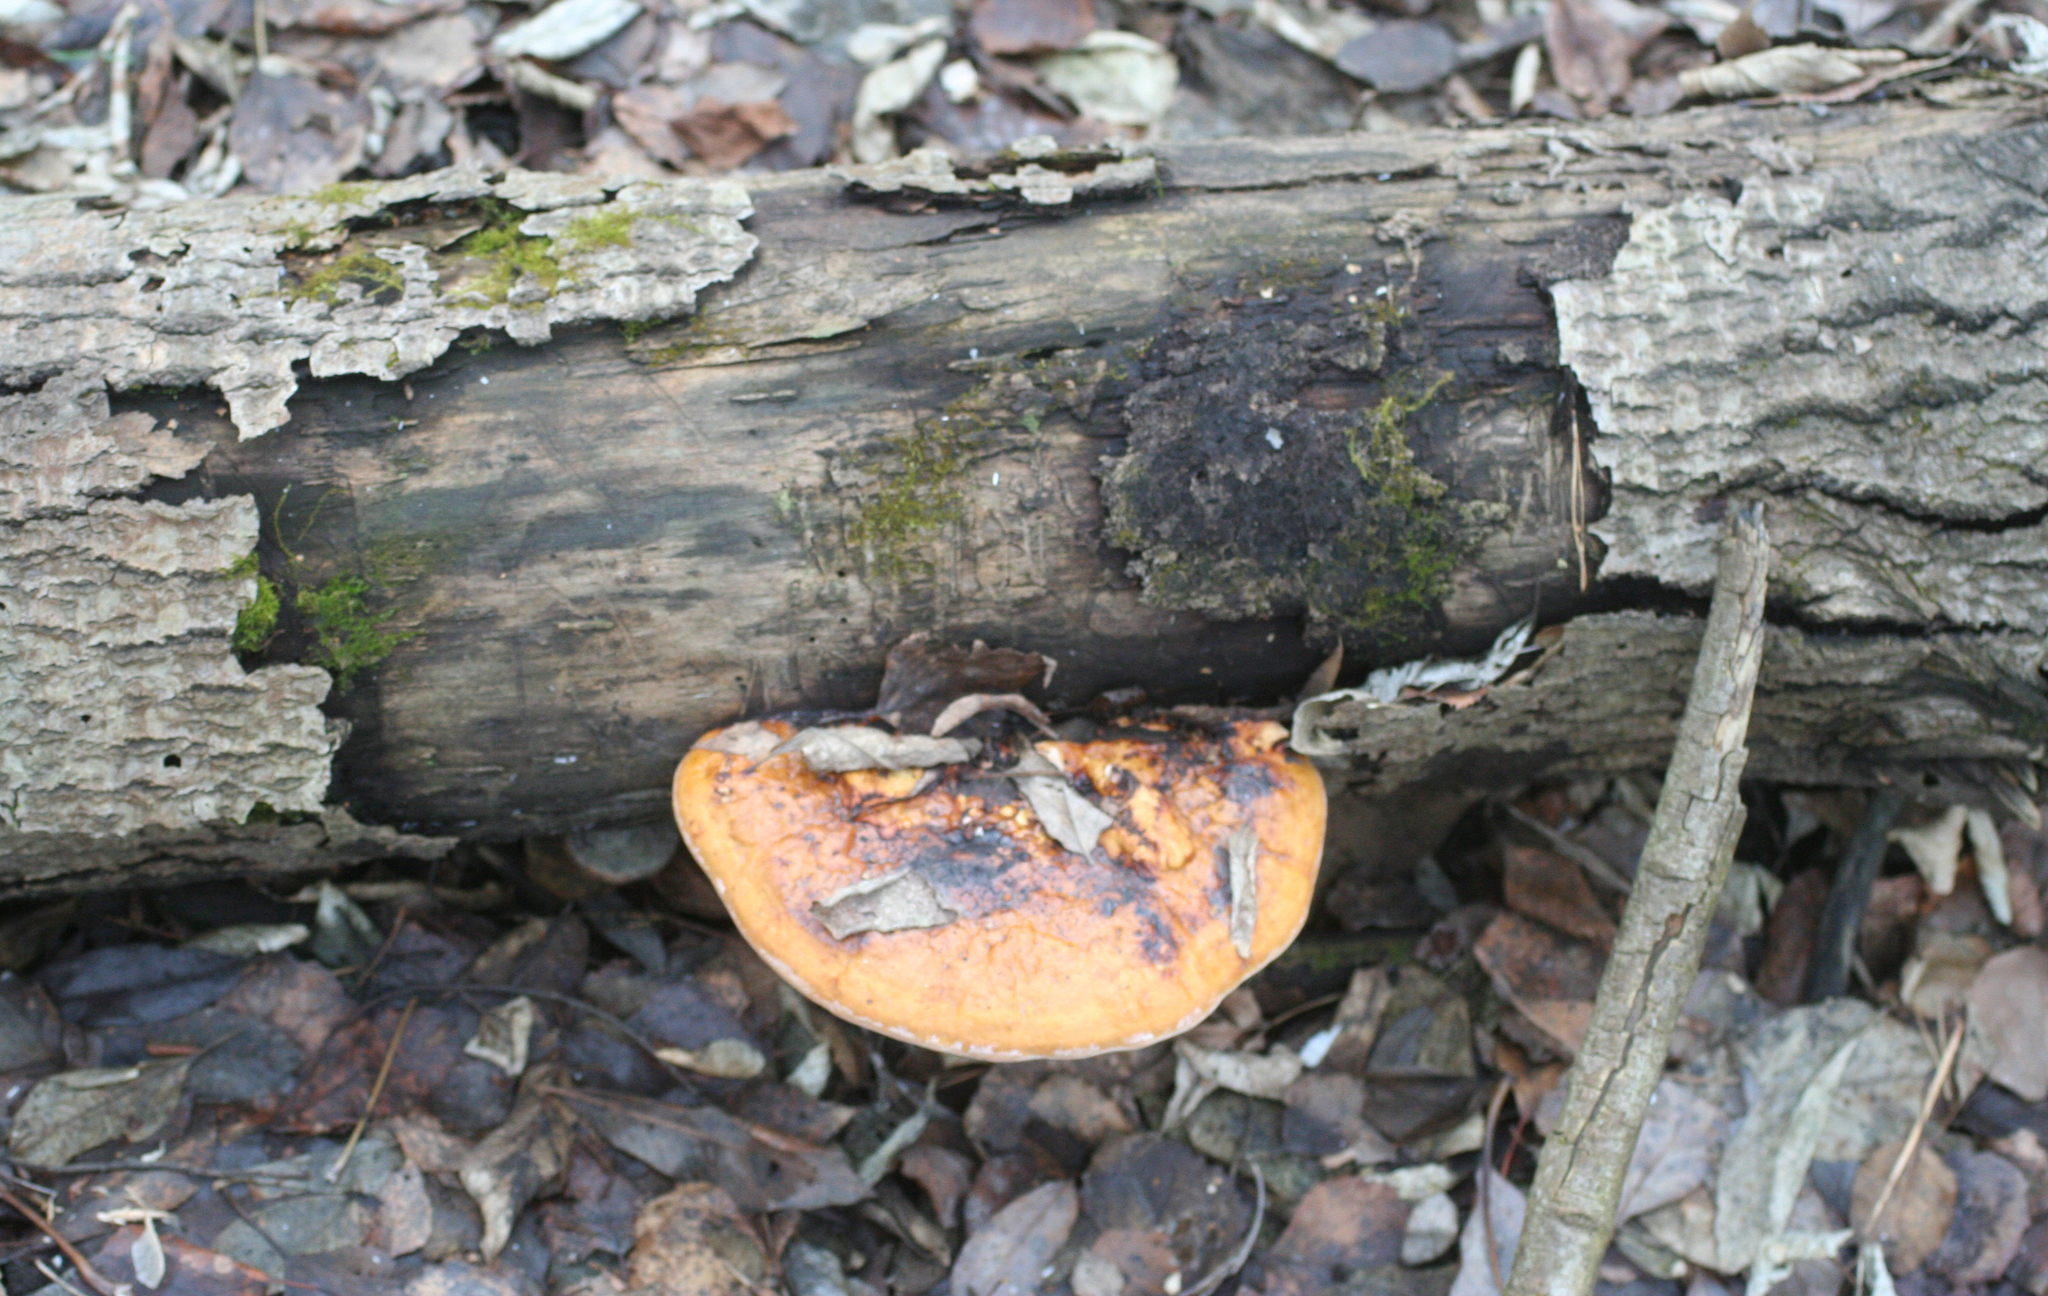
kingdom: Fungi
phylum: Basidiomycota
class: Agaricomycetes
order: Polyporales
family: Fomitopsidaceae
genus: Fomitopsis
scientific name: Fomitopsis pinicola
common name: Red-belted bracket
